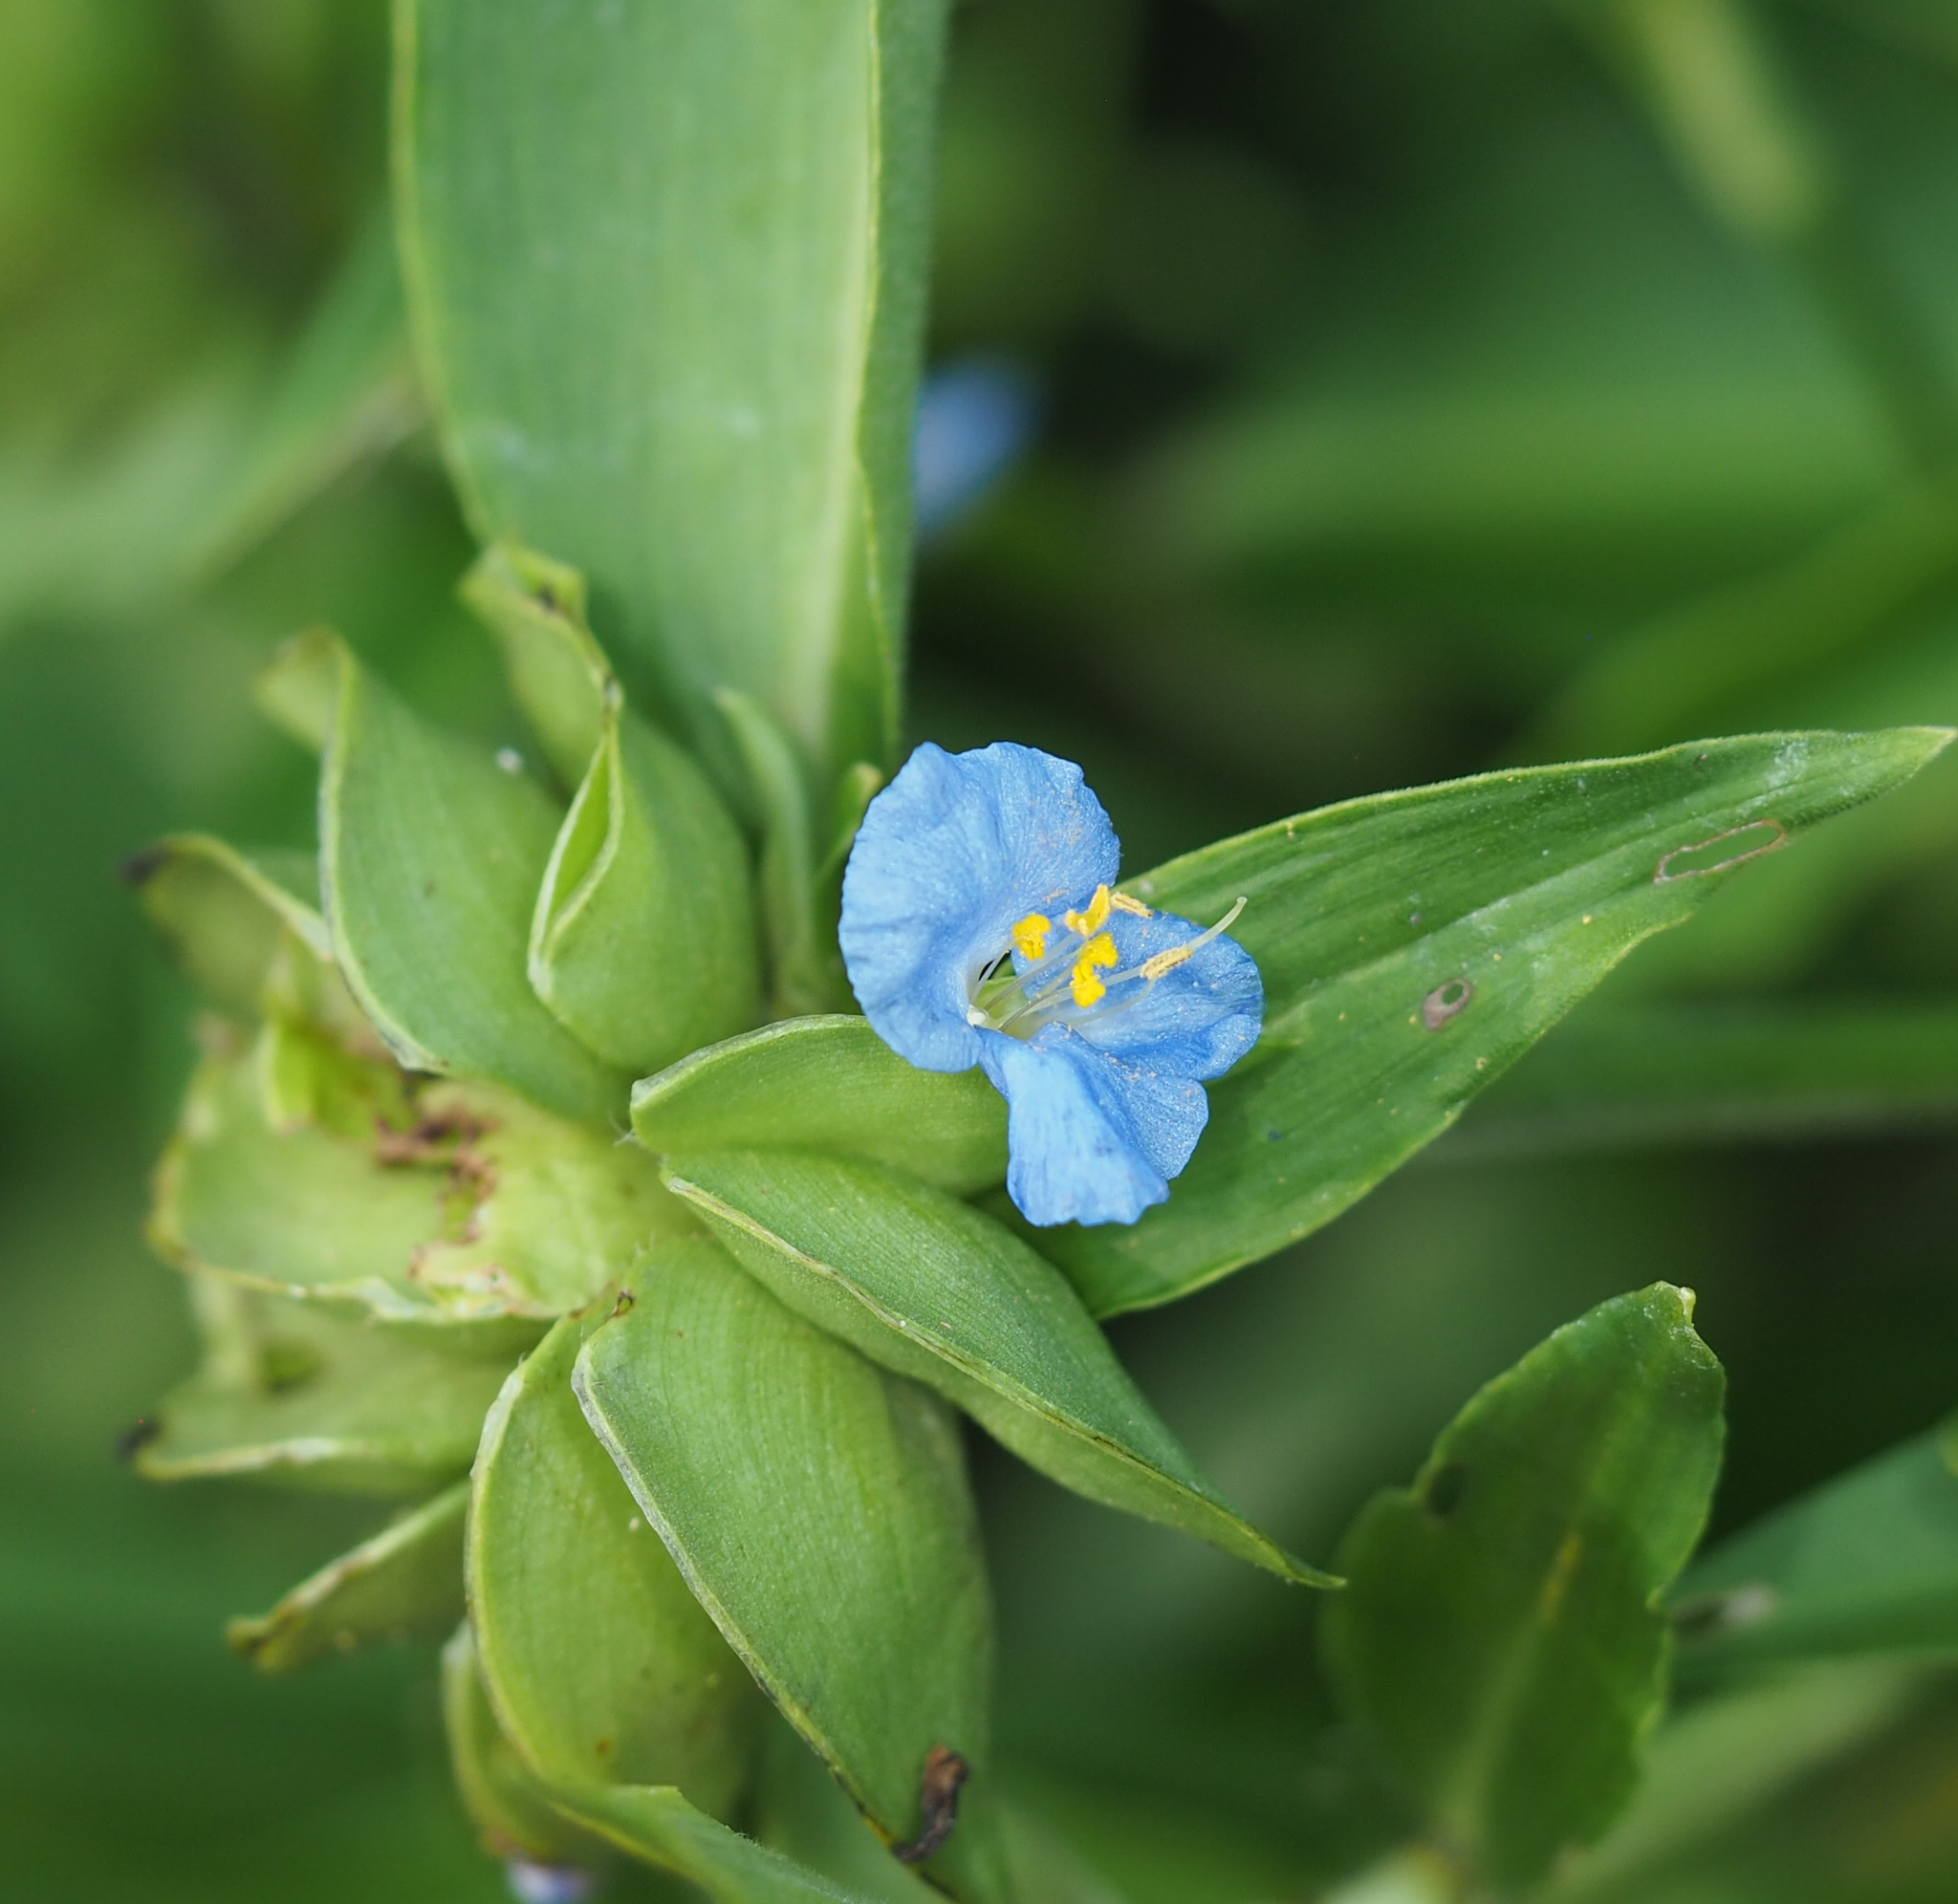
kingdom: Plantae
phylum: Tracheophyta
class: Liliopsida
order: Commelinales
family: Commelinaceae
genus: Commelina
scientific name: Commelina virginica
